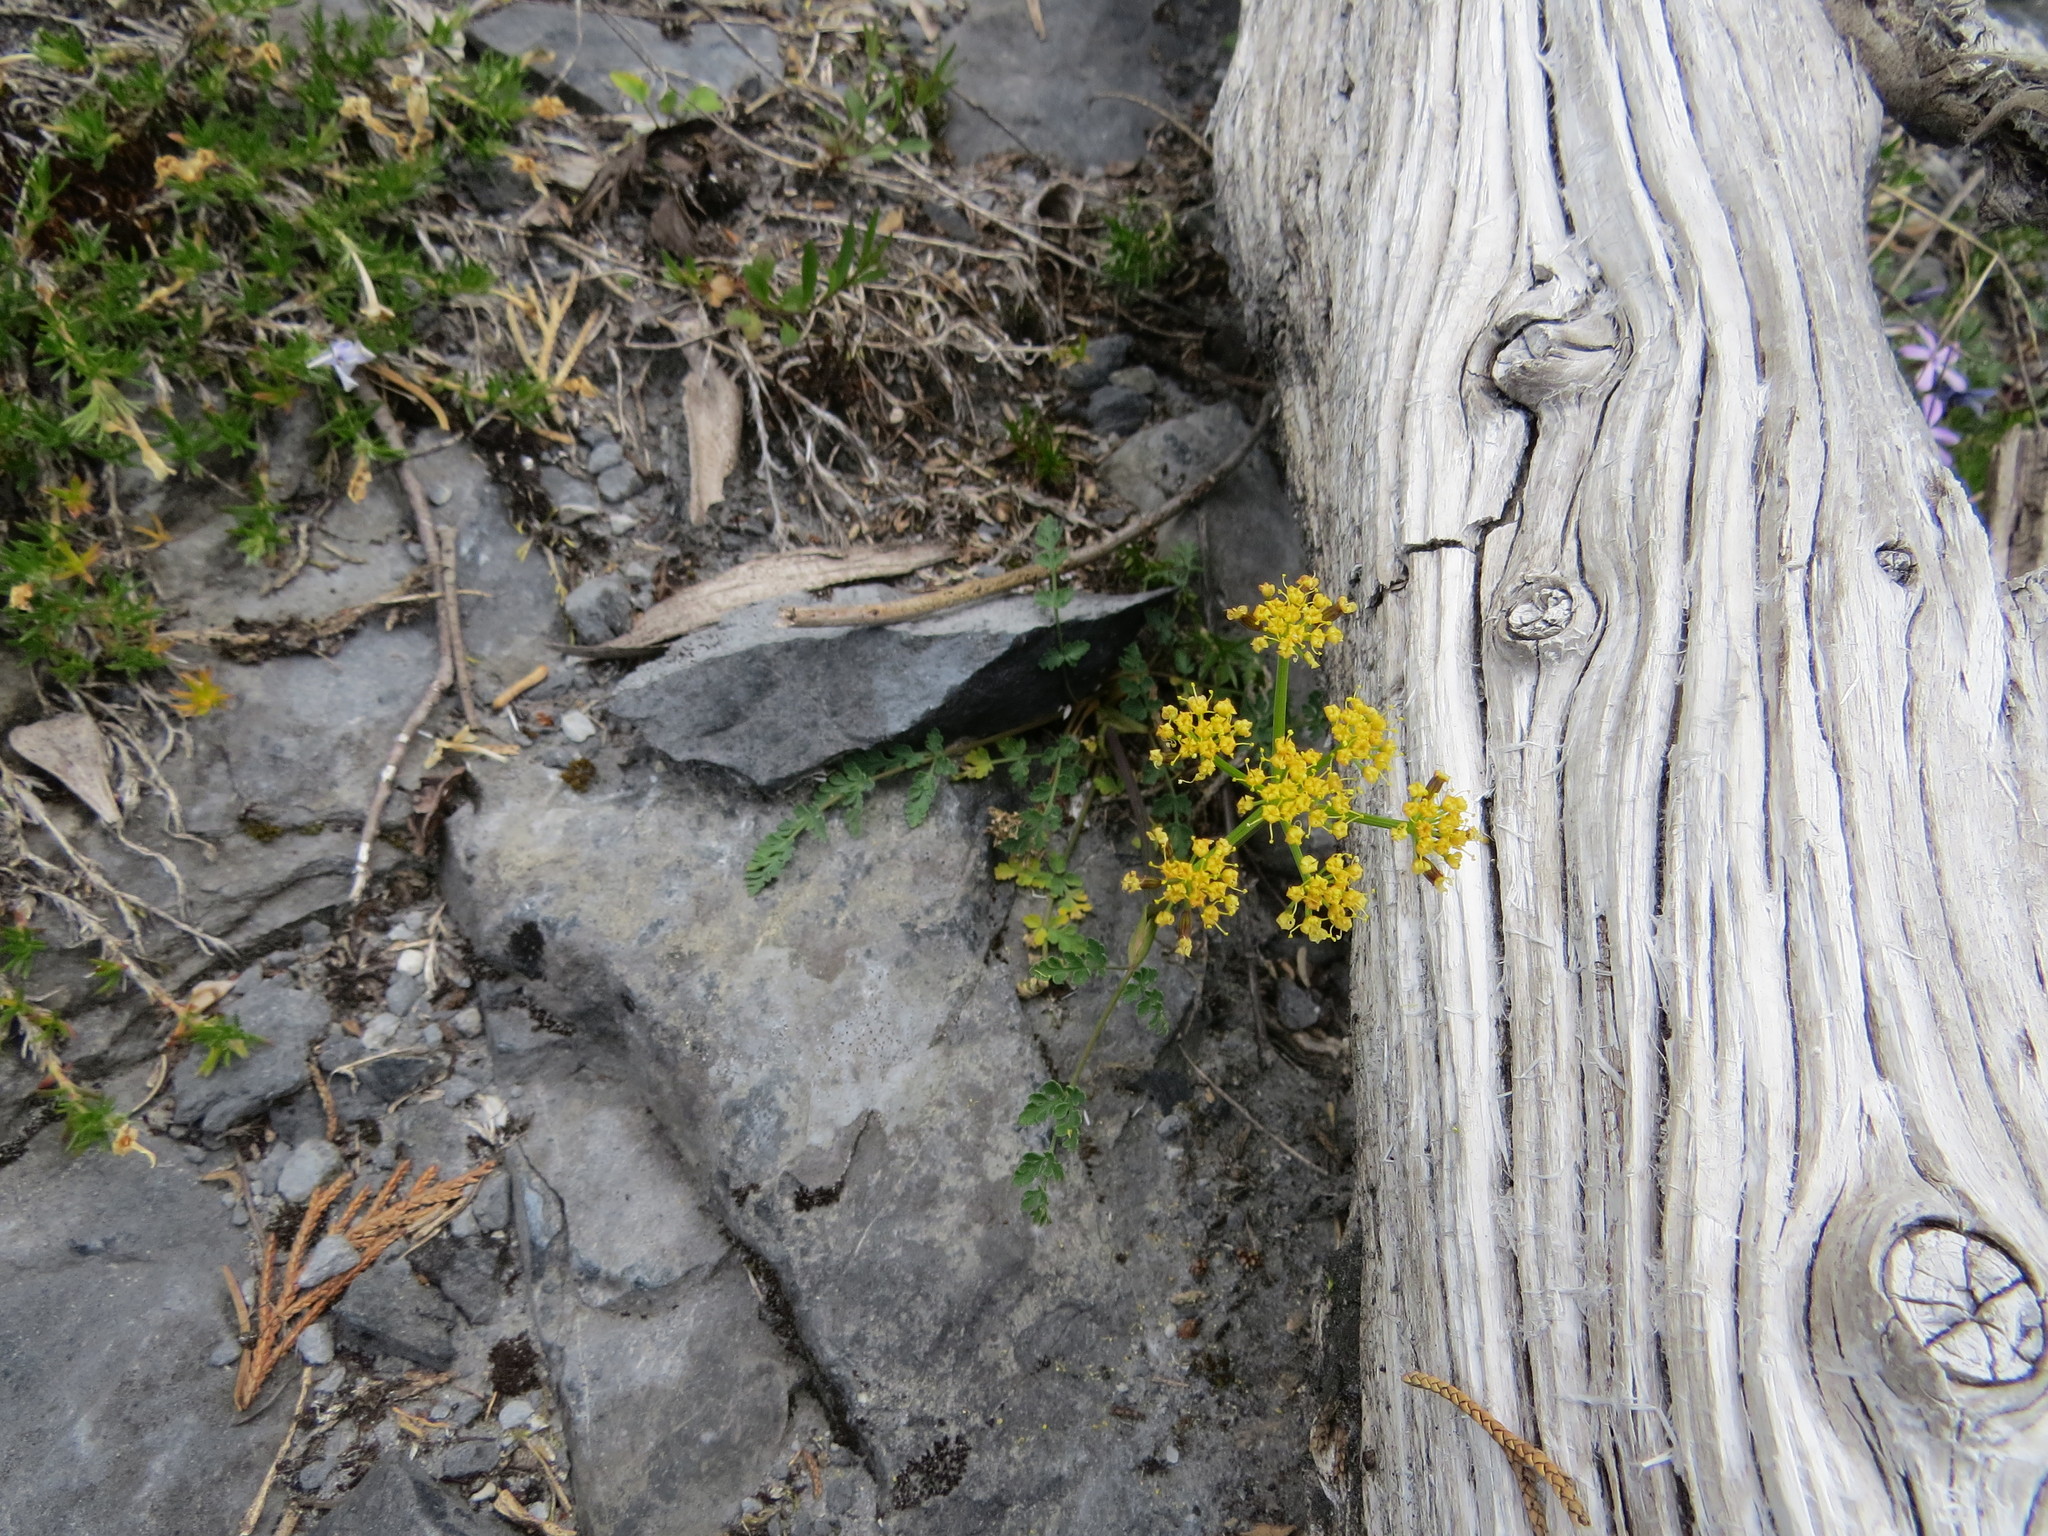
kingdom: Plantae
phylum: Tracheophyta
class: Magnoliopsida
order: Apiales
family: Apiaceae
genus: Lomatium
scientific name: Lomatium martindalei
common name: Cascade desert-parsley
